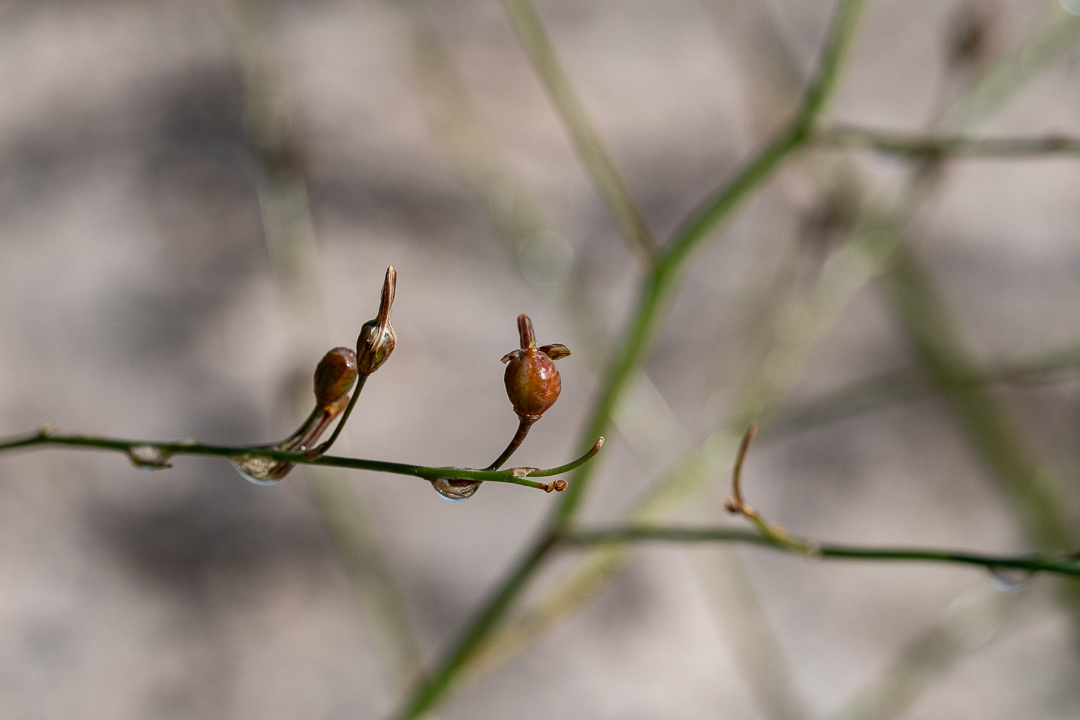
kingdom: Plantae
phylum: Tracheophyta
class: Liliopsida
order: Asparagales
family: Asphodelaceae
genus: Trachyandra
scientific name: Trachyandra revoluta
